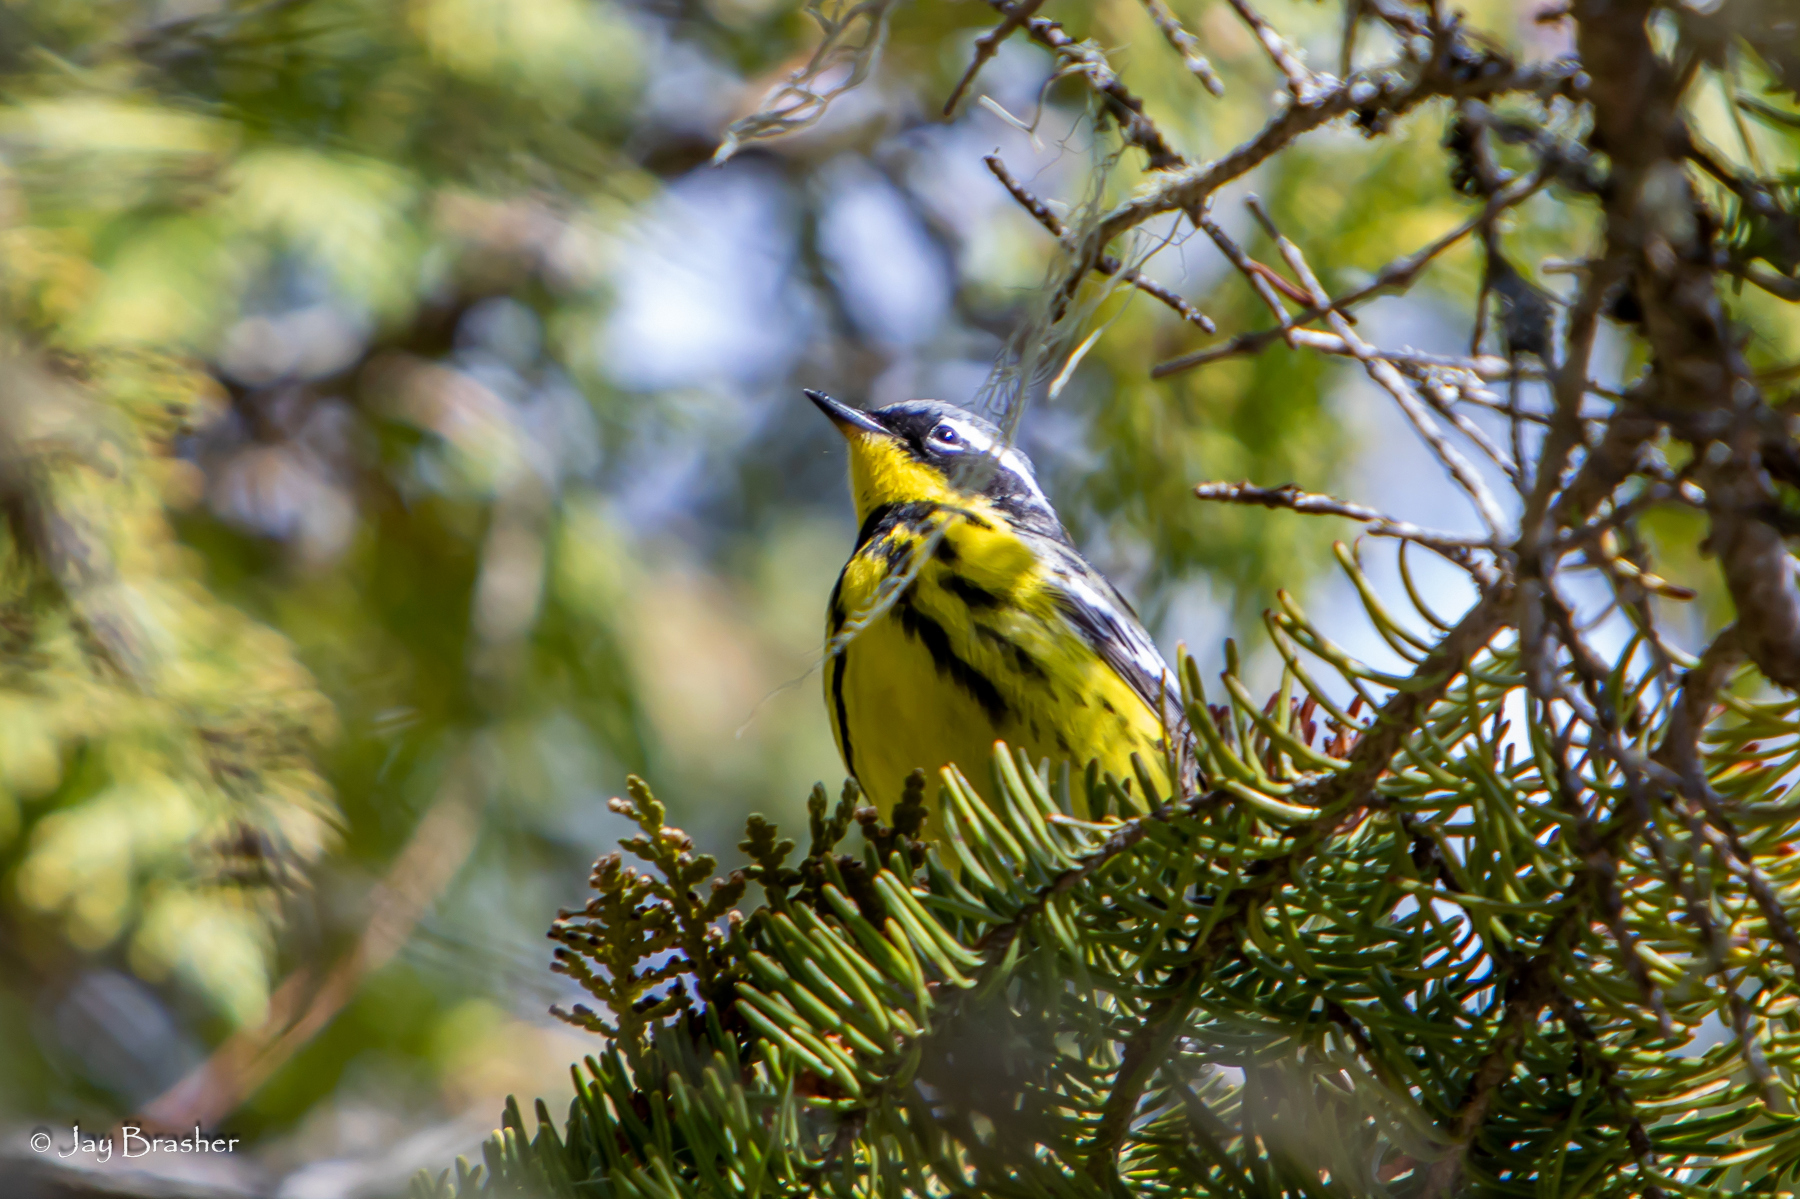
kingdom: Animalia
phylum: Chordata
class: Aves
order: Passeriformes
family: Parulidae
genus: Setophaga
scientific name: Setophaga magnolia
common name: Magnolia warbler
